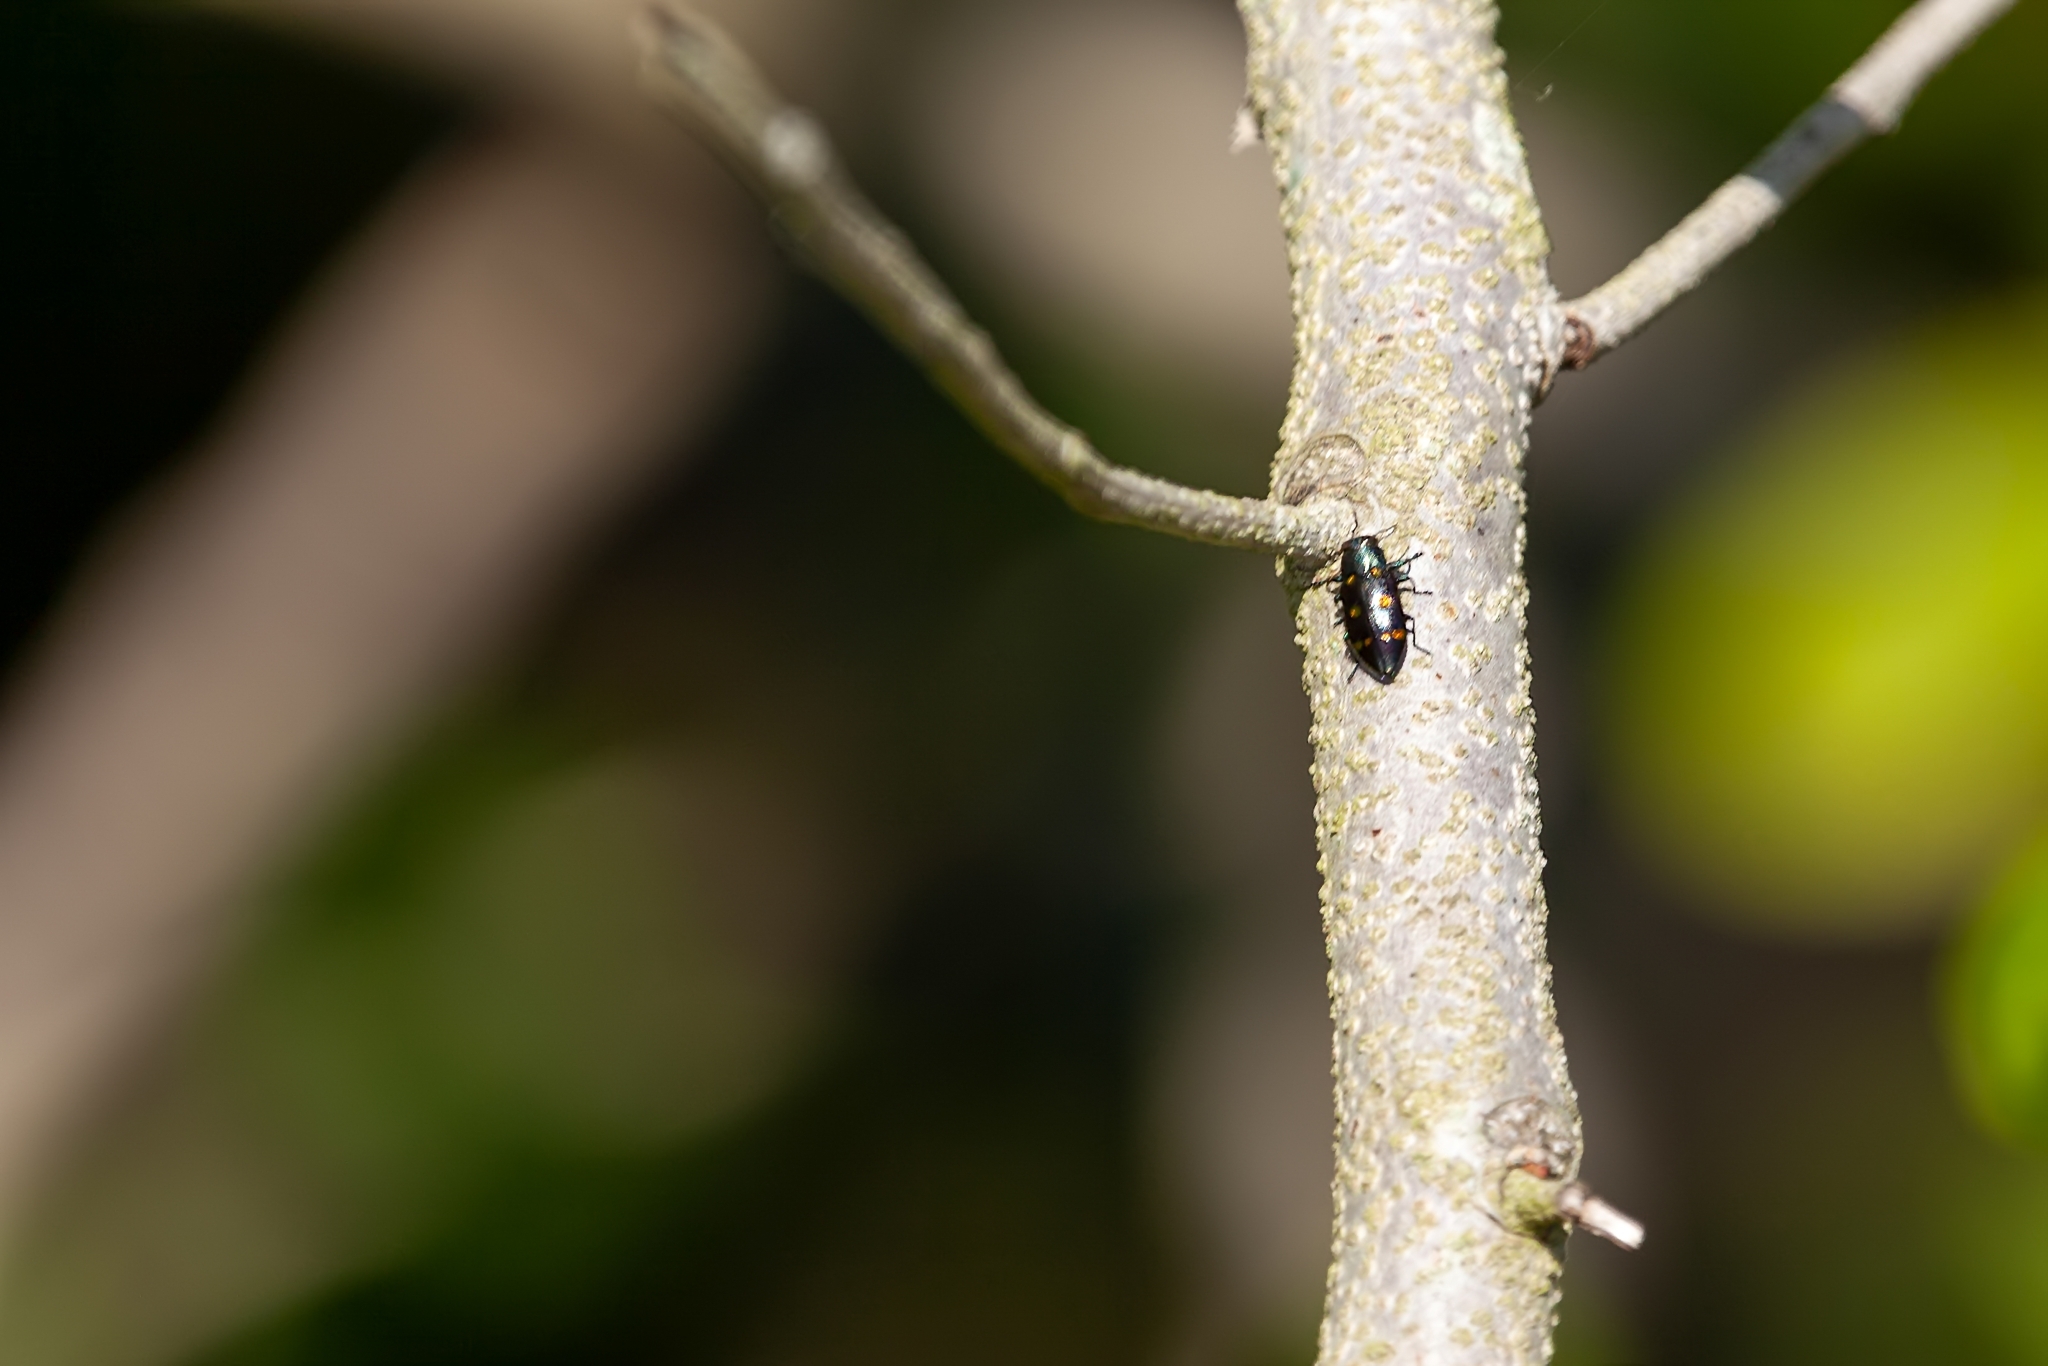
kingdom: Animalia
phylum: Arthropoda
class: Insecta
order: Coleoptera
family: Buprestidae
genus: Chrysobothris
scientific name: Chrysobothris chrysoela
